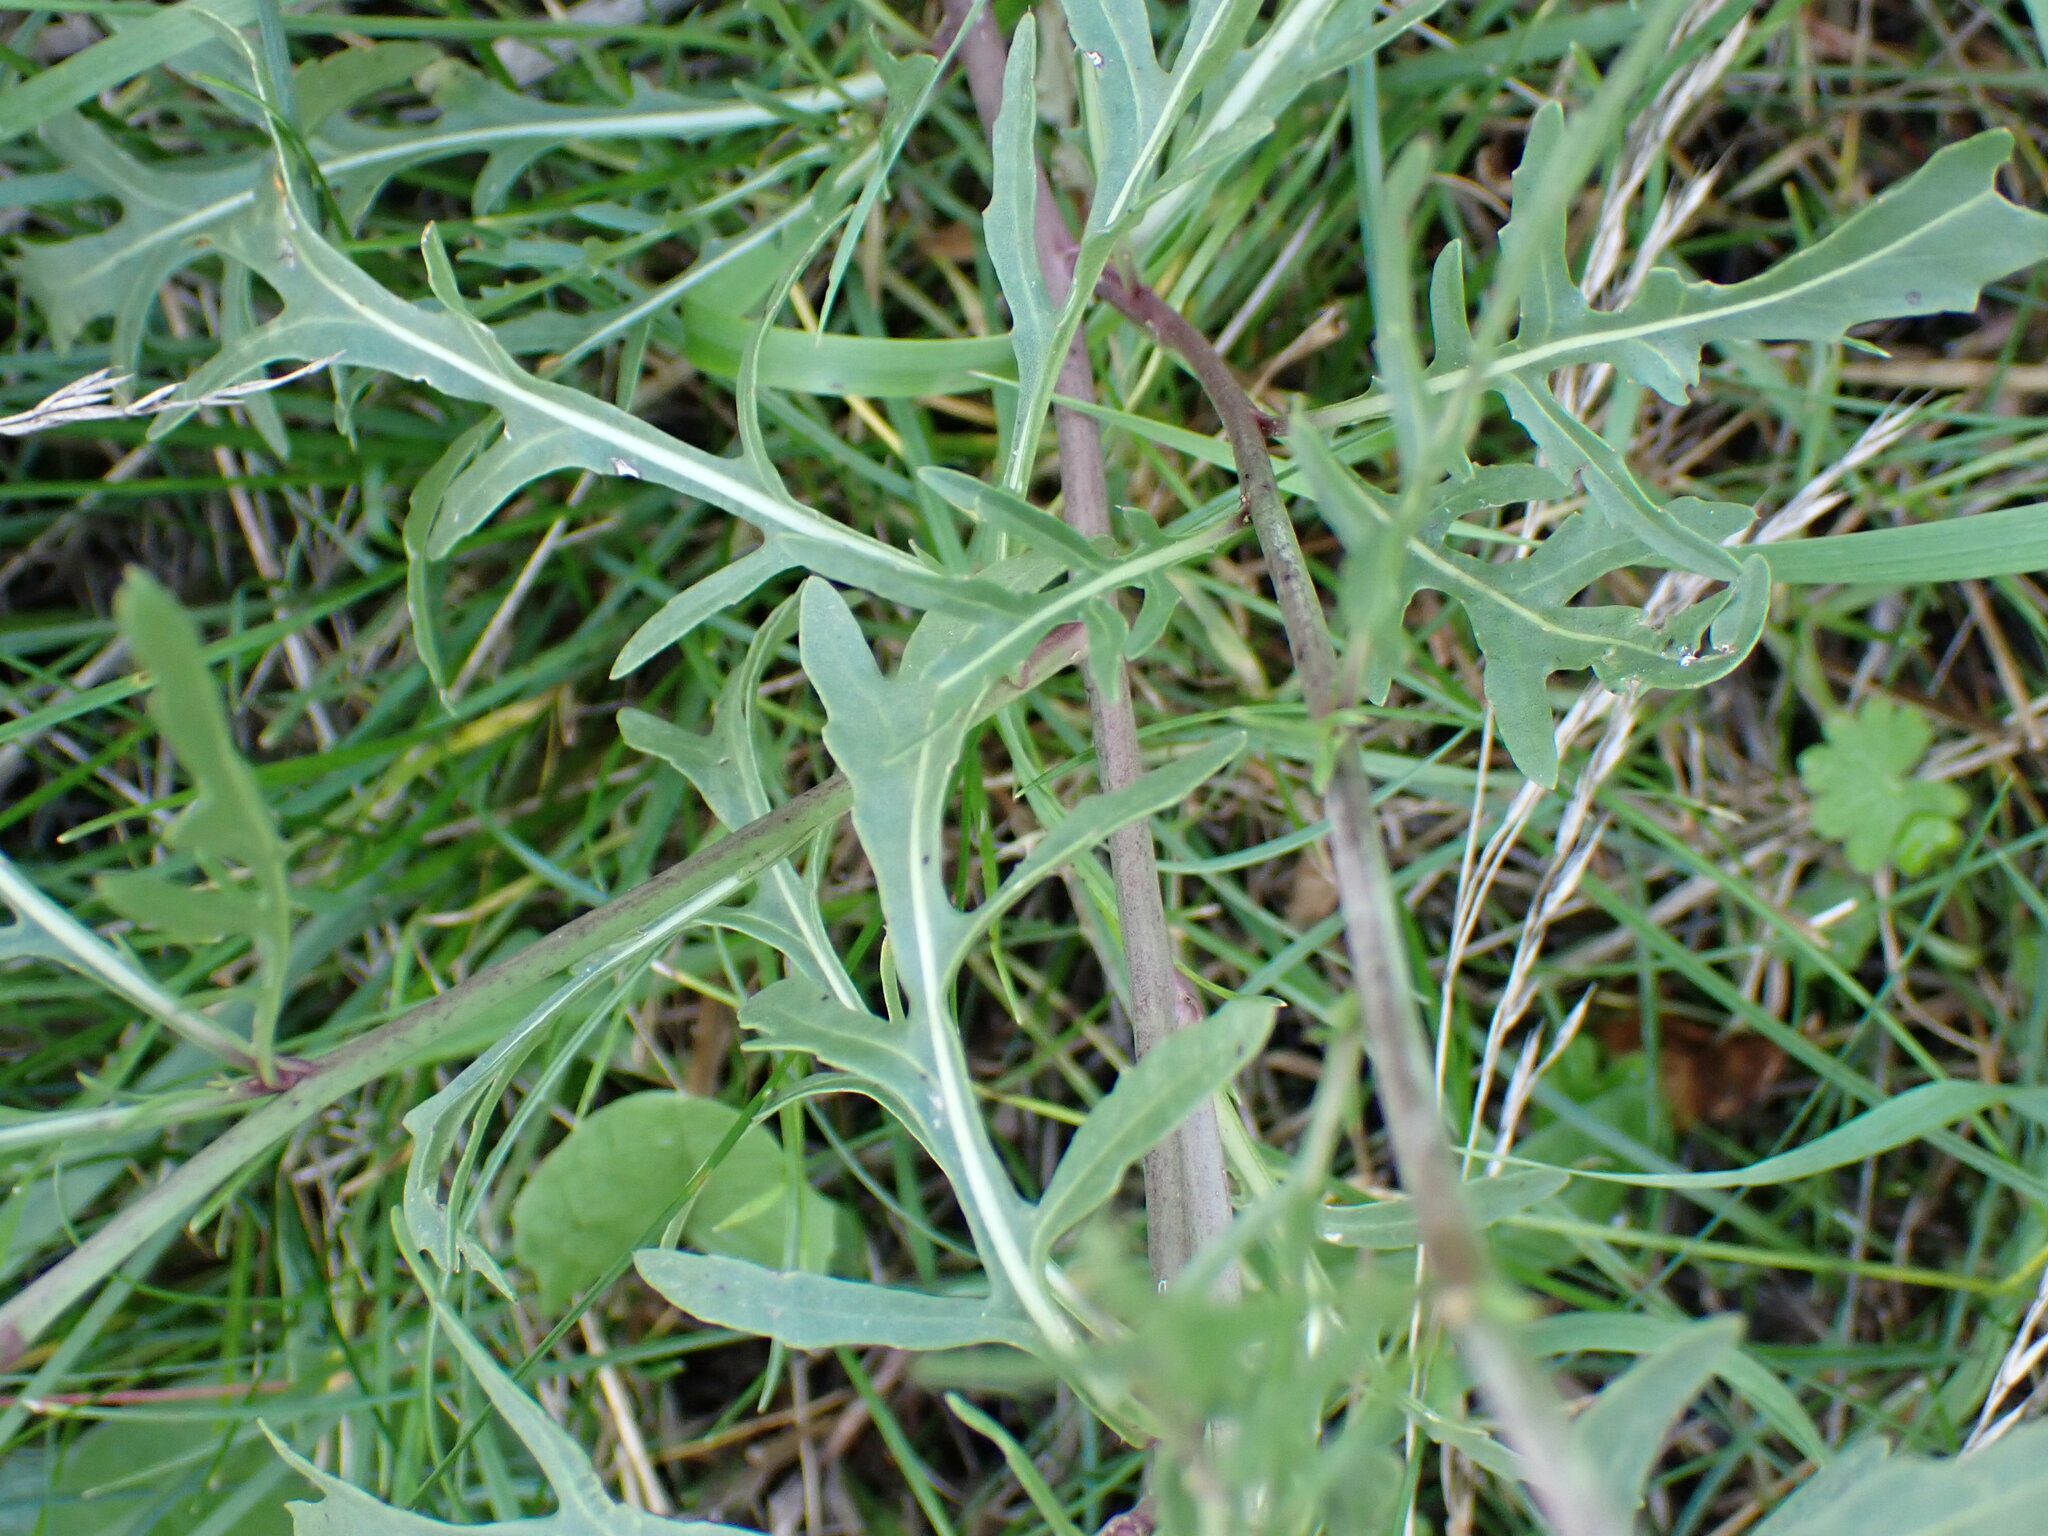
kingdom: Plantae
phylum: Tracheophyta
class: Magnoliopsida
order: Brassicales
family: Brassicaceae
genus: Diplotaxis
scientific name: Diplotaxis tenuifolia
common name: Perennial wall-rocket
